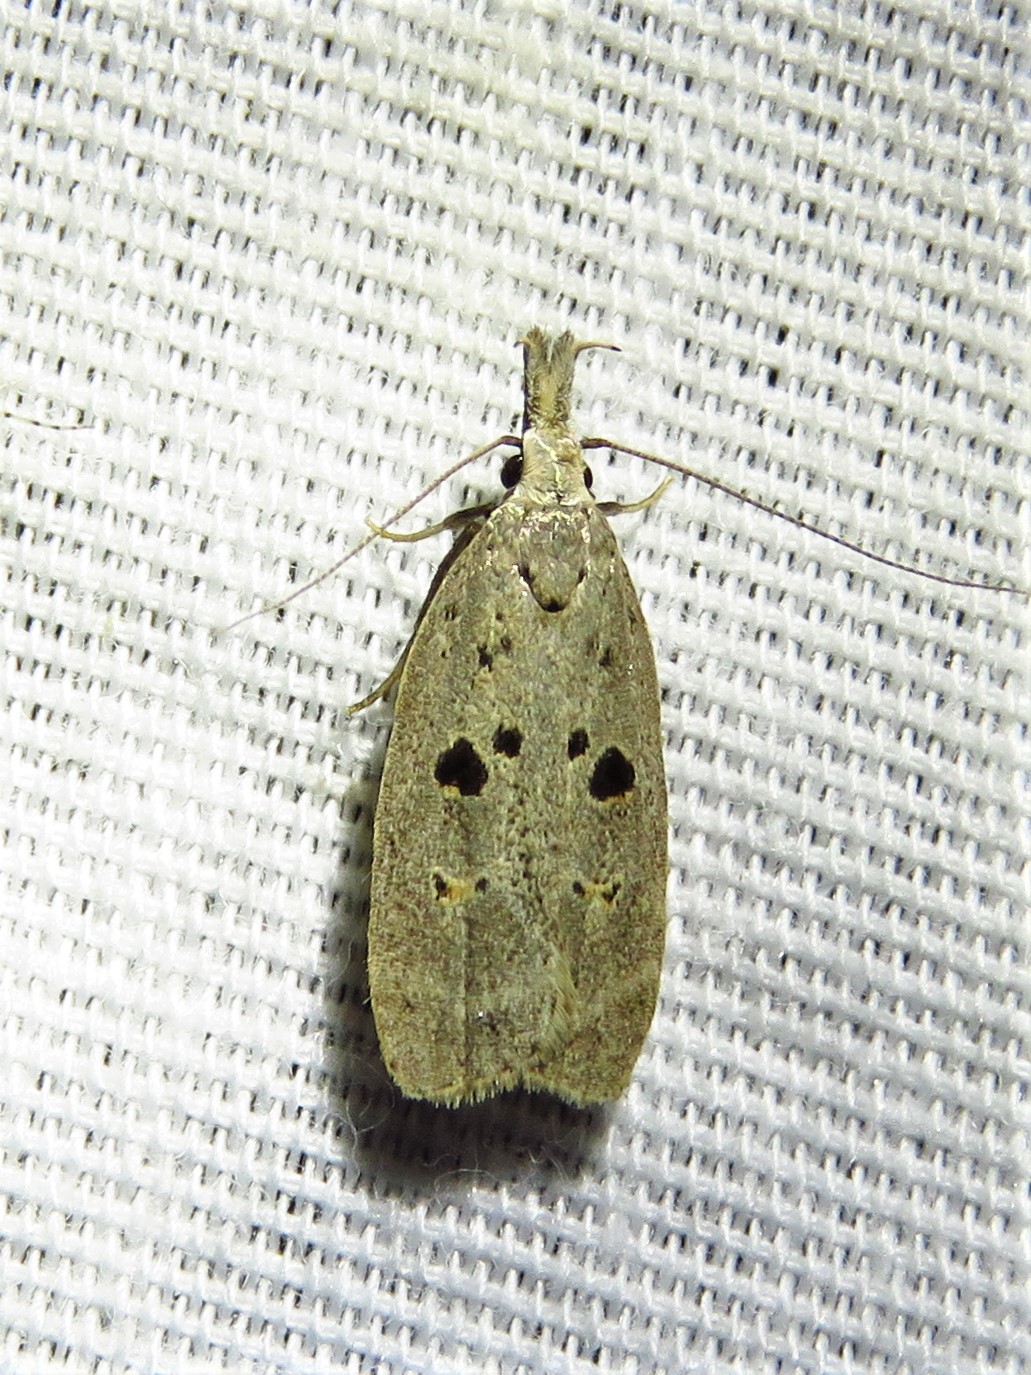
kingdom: Animalia
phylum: Arthropoda
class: Insecta
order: Lepidoptera
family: Gelechiidae
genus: Dichomeris
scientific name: Dichomeris glenni
